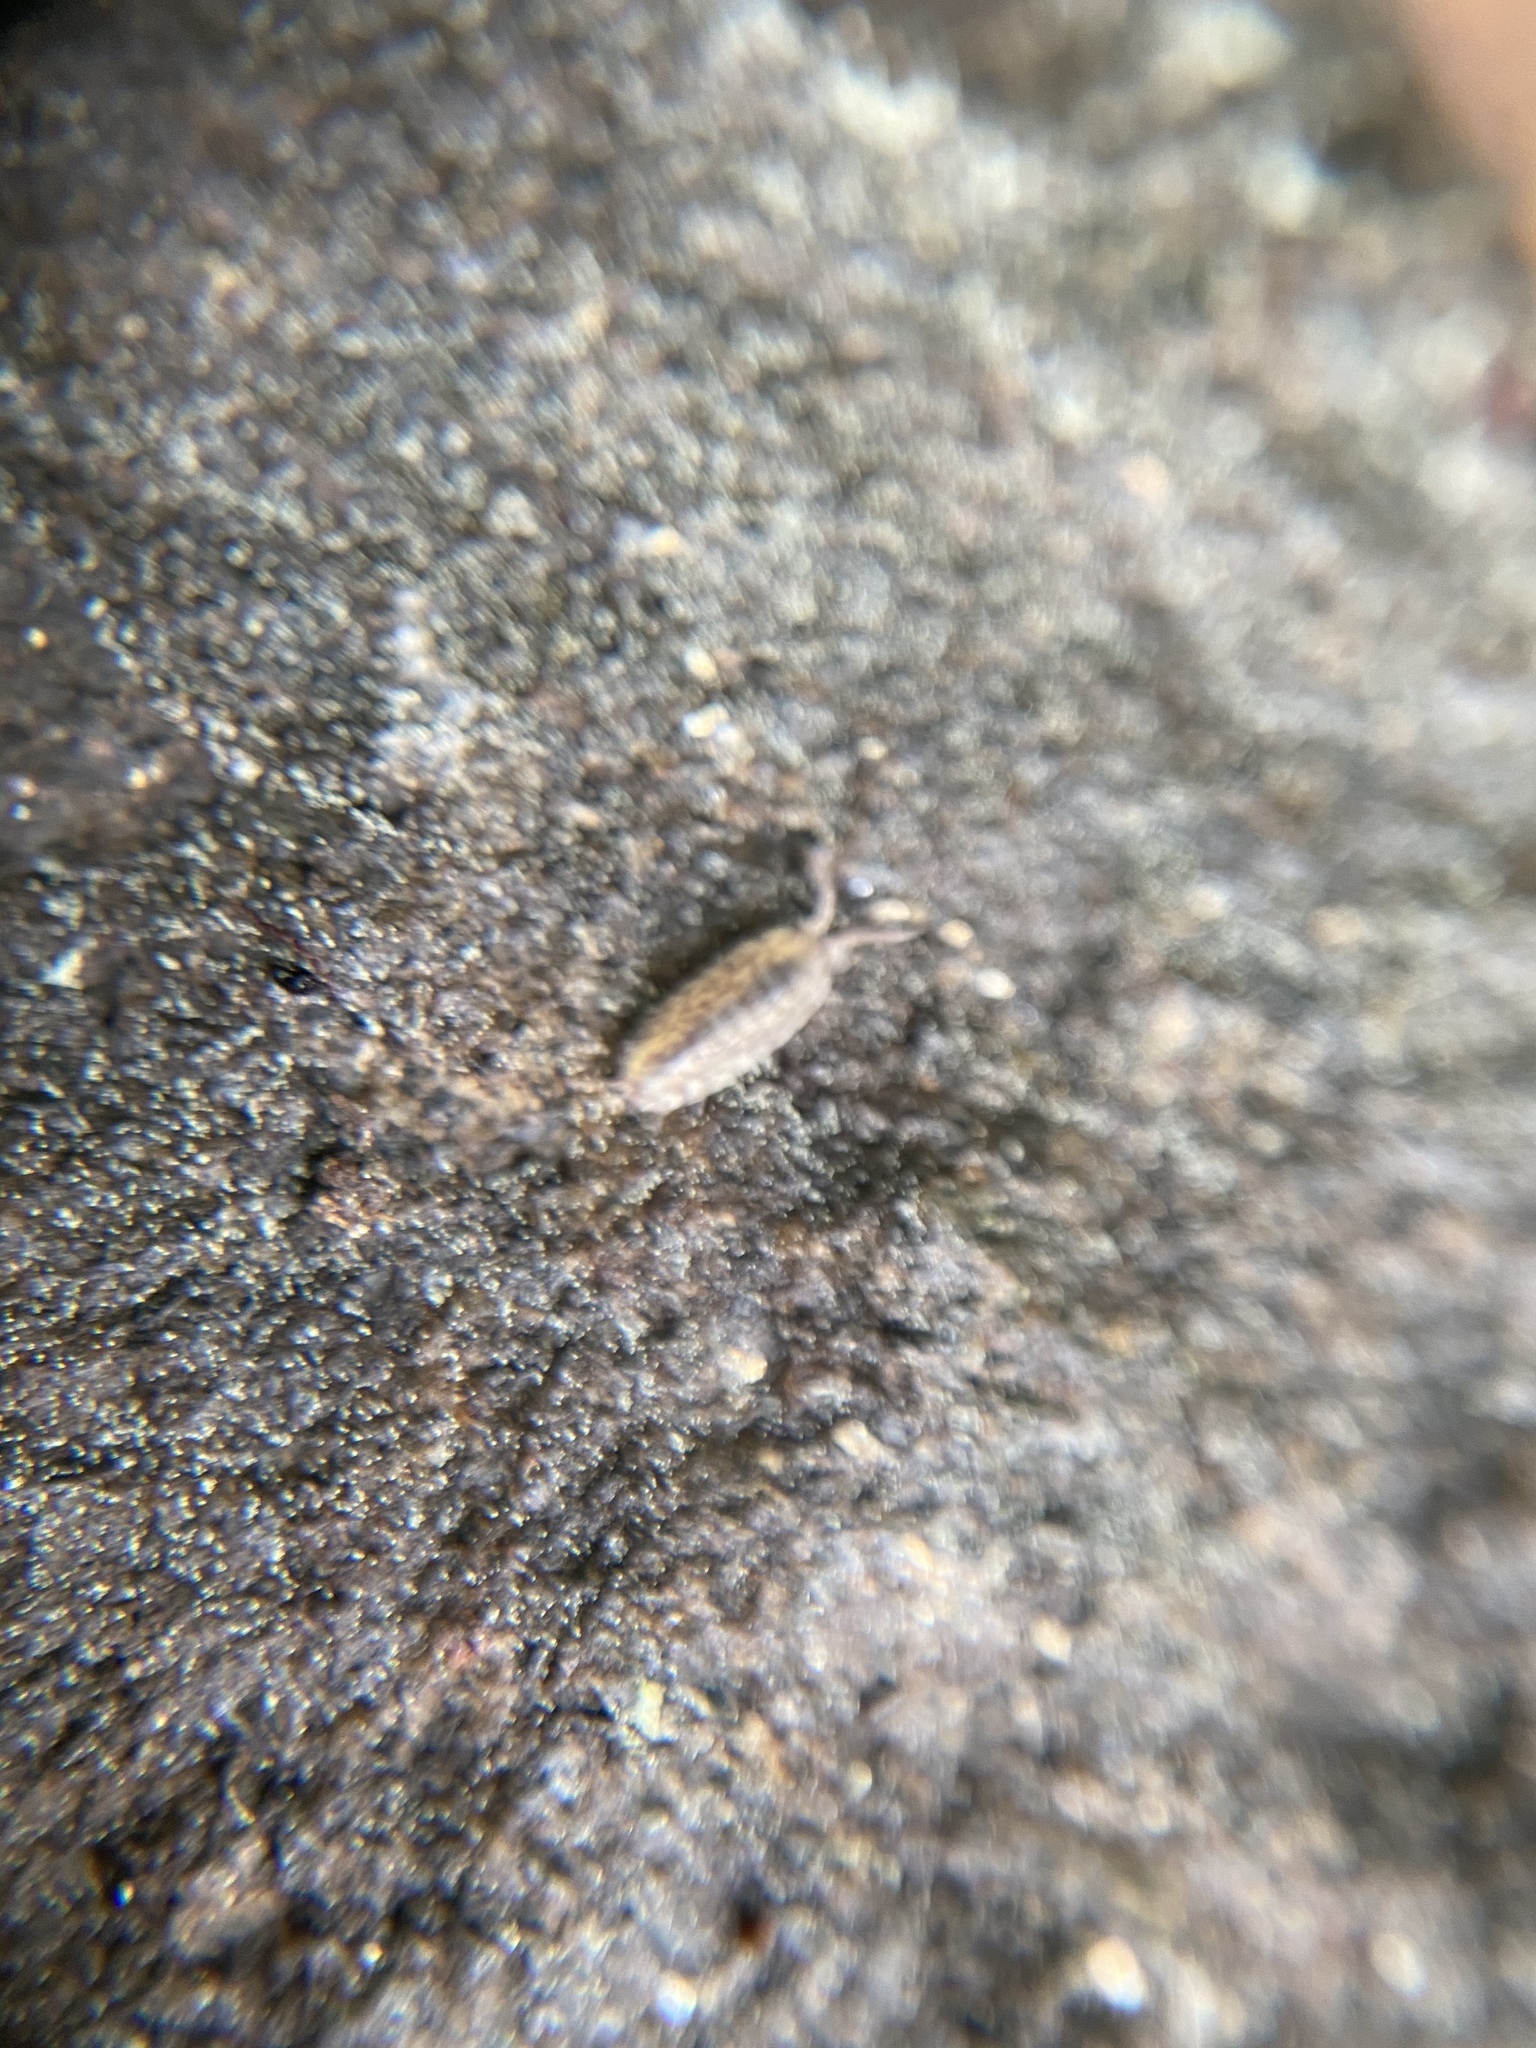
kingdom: Animalia
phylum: Arthropoda
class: Malacostraca
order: Isopoda
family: Porcellionidae
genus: Porcellio
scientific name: Porcellio scaber
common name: Common rough woodlouse
